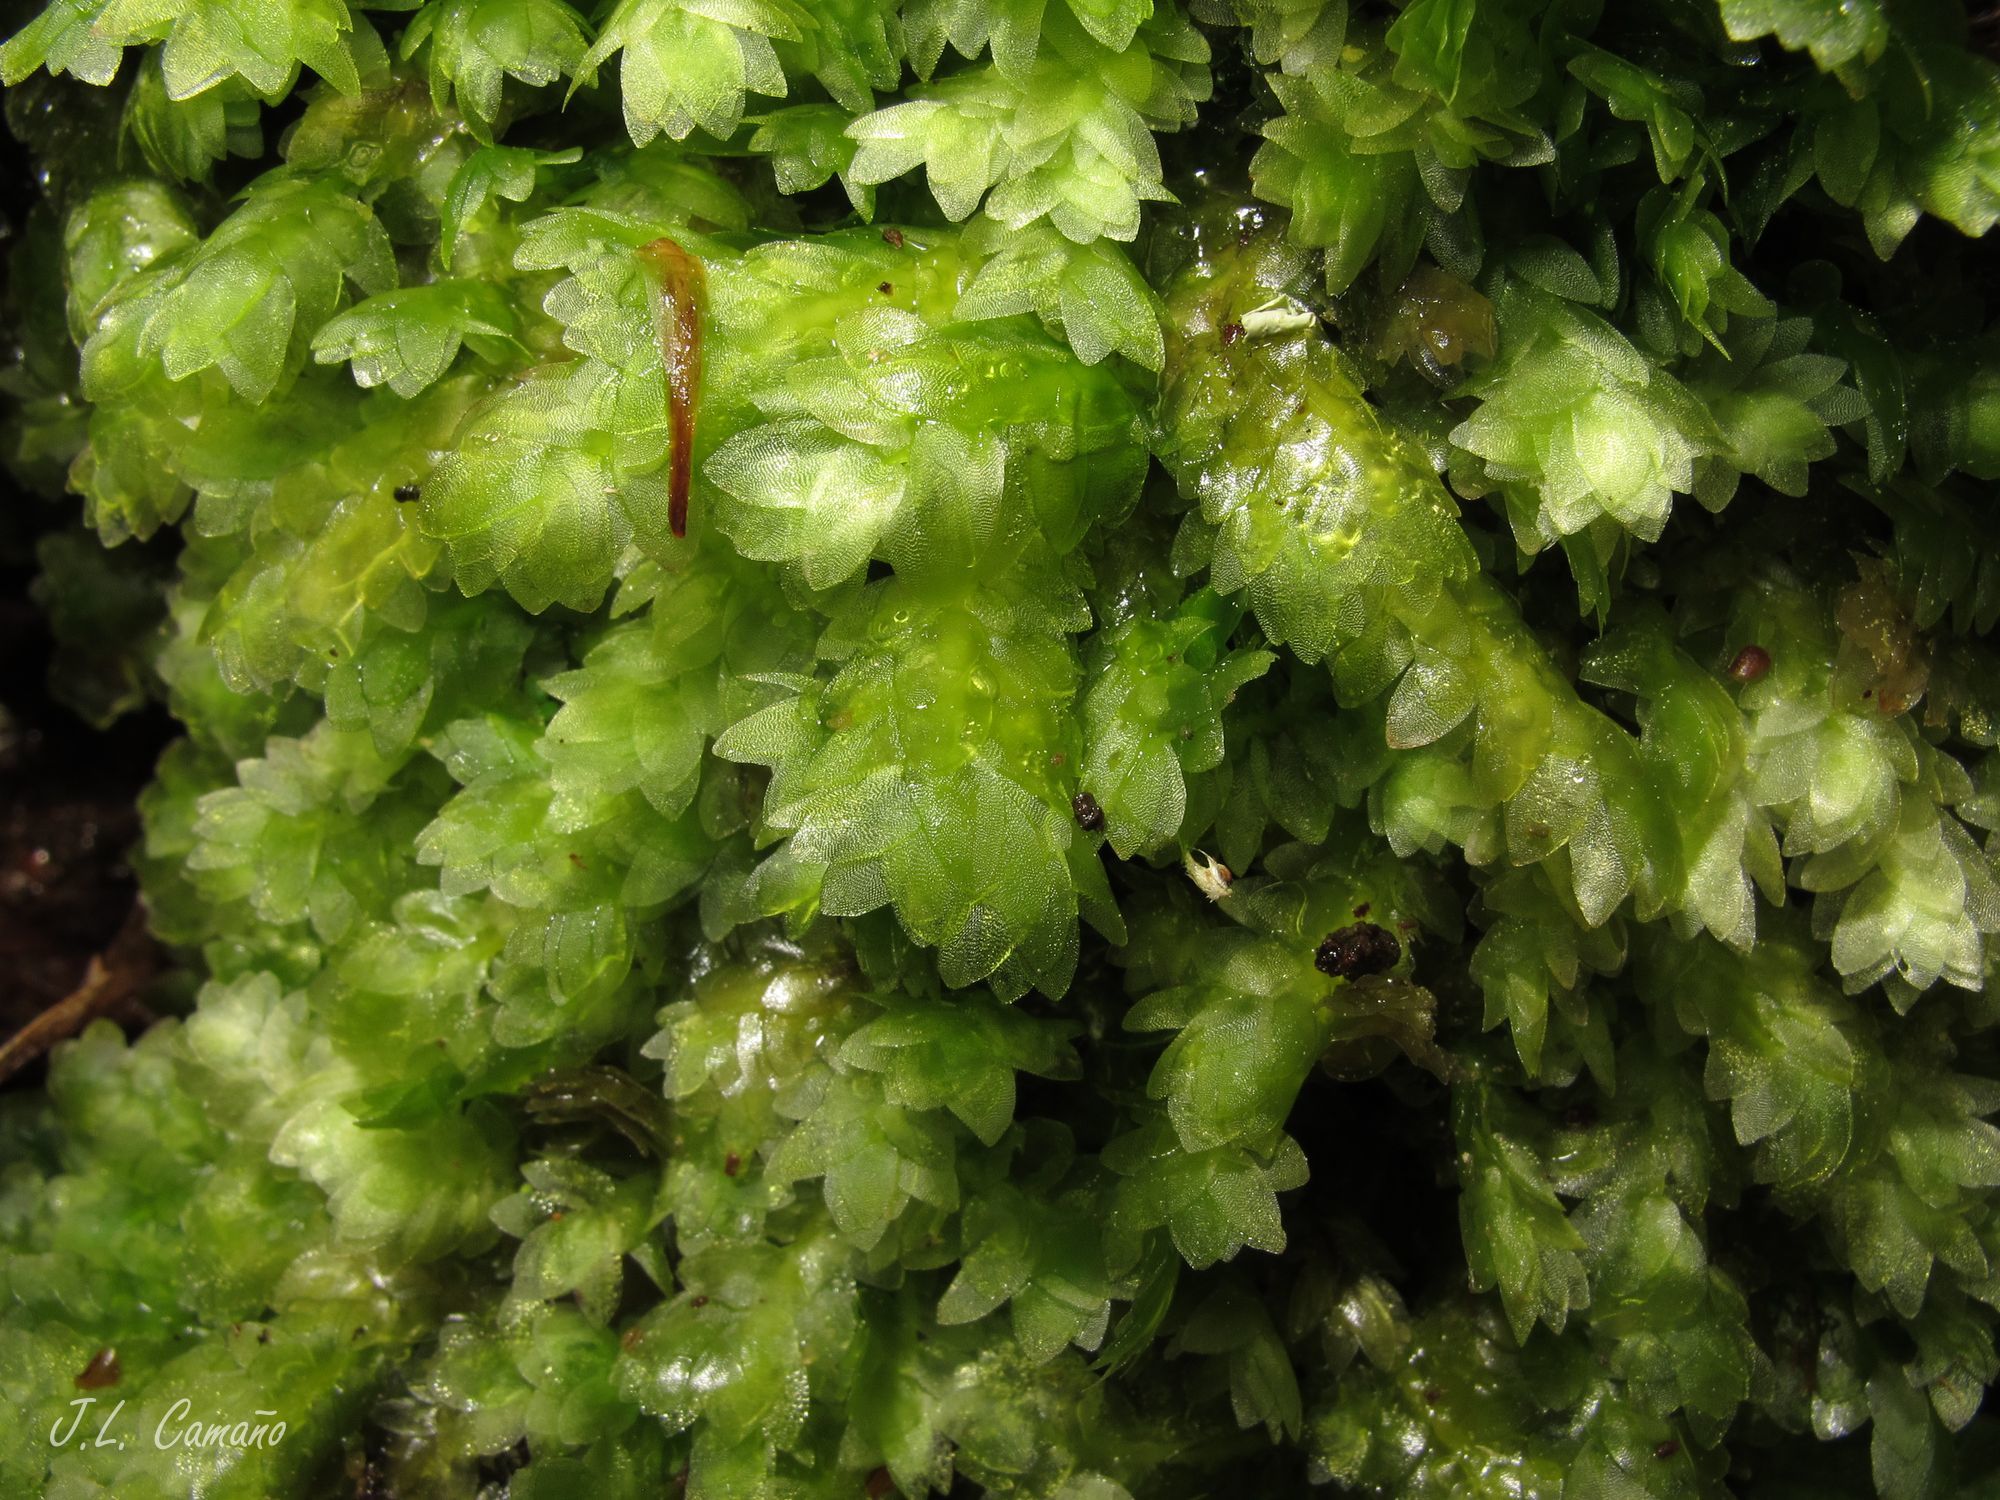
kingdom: Plantae
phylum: Bryophyta
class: Bryopsida
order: Hookeriales
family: Hookeriaceae
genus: Hookeria
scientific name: Hookeria lucens
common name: Shining hookeria
